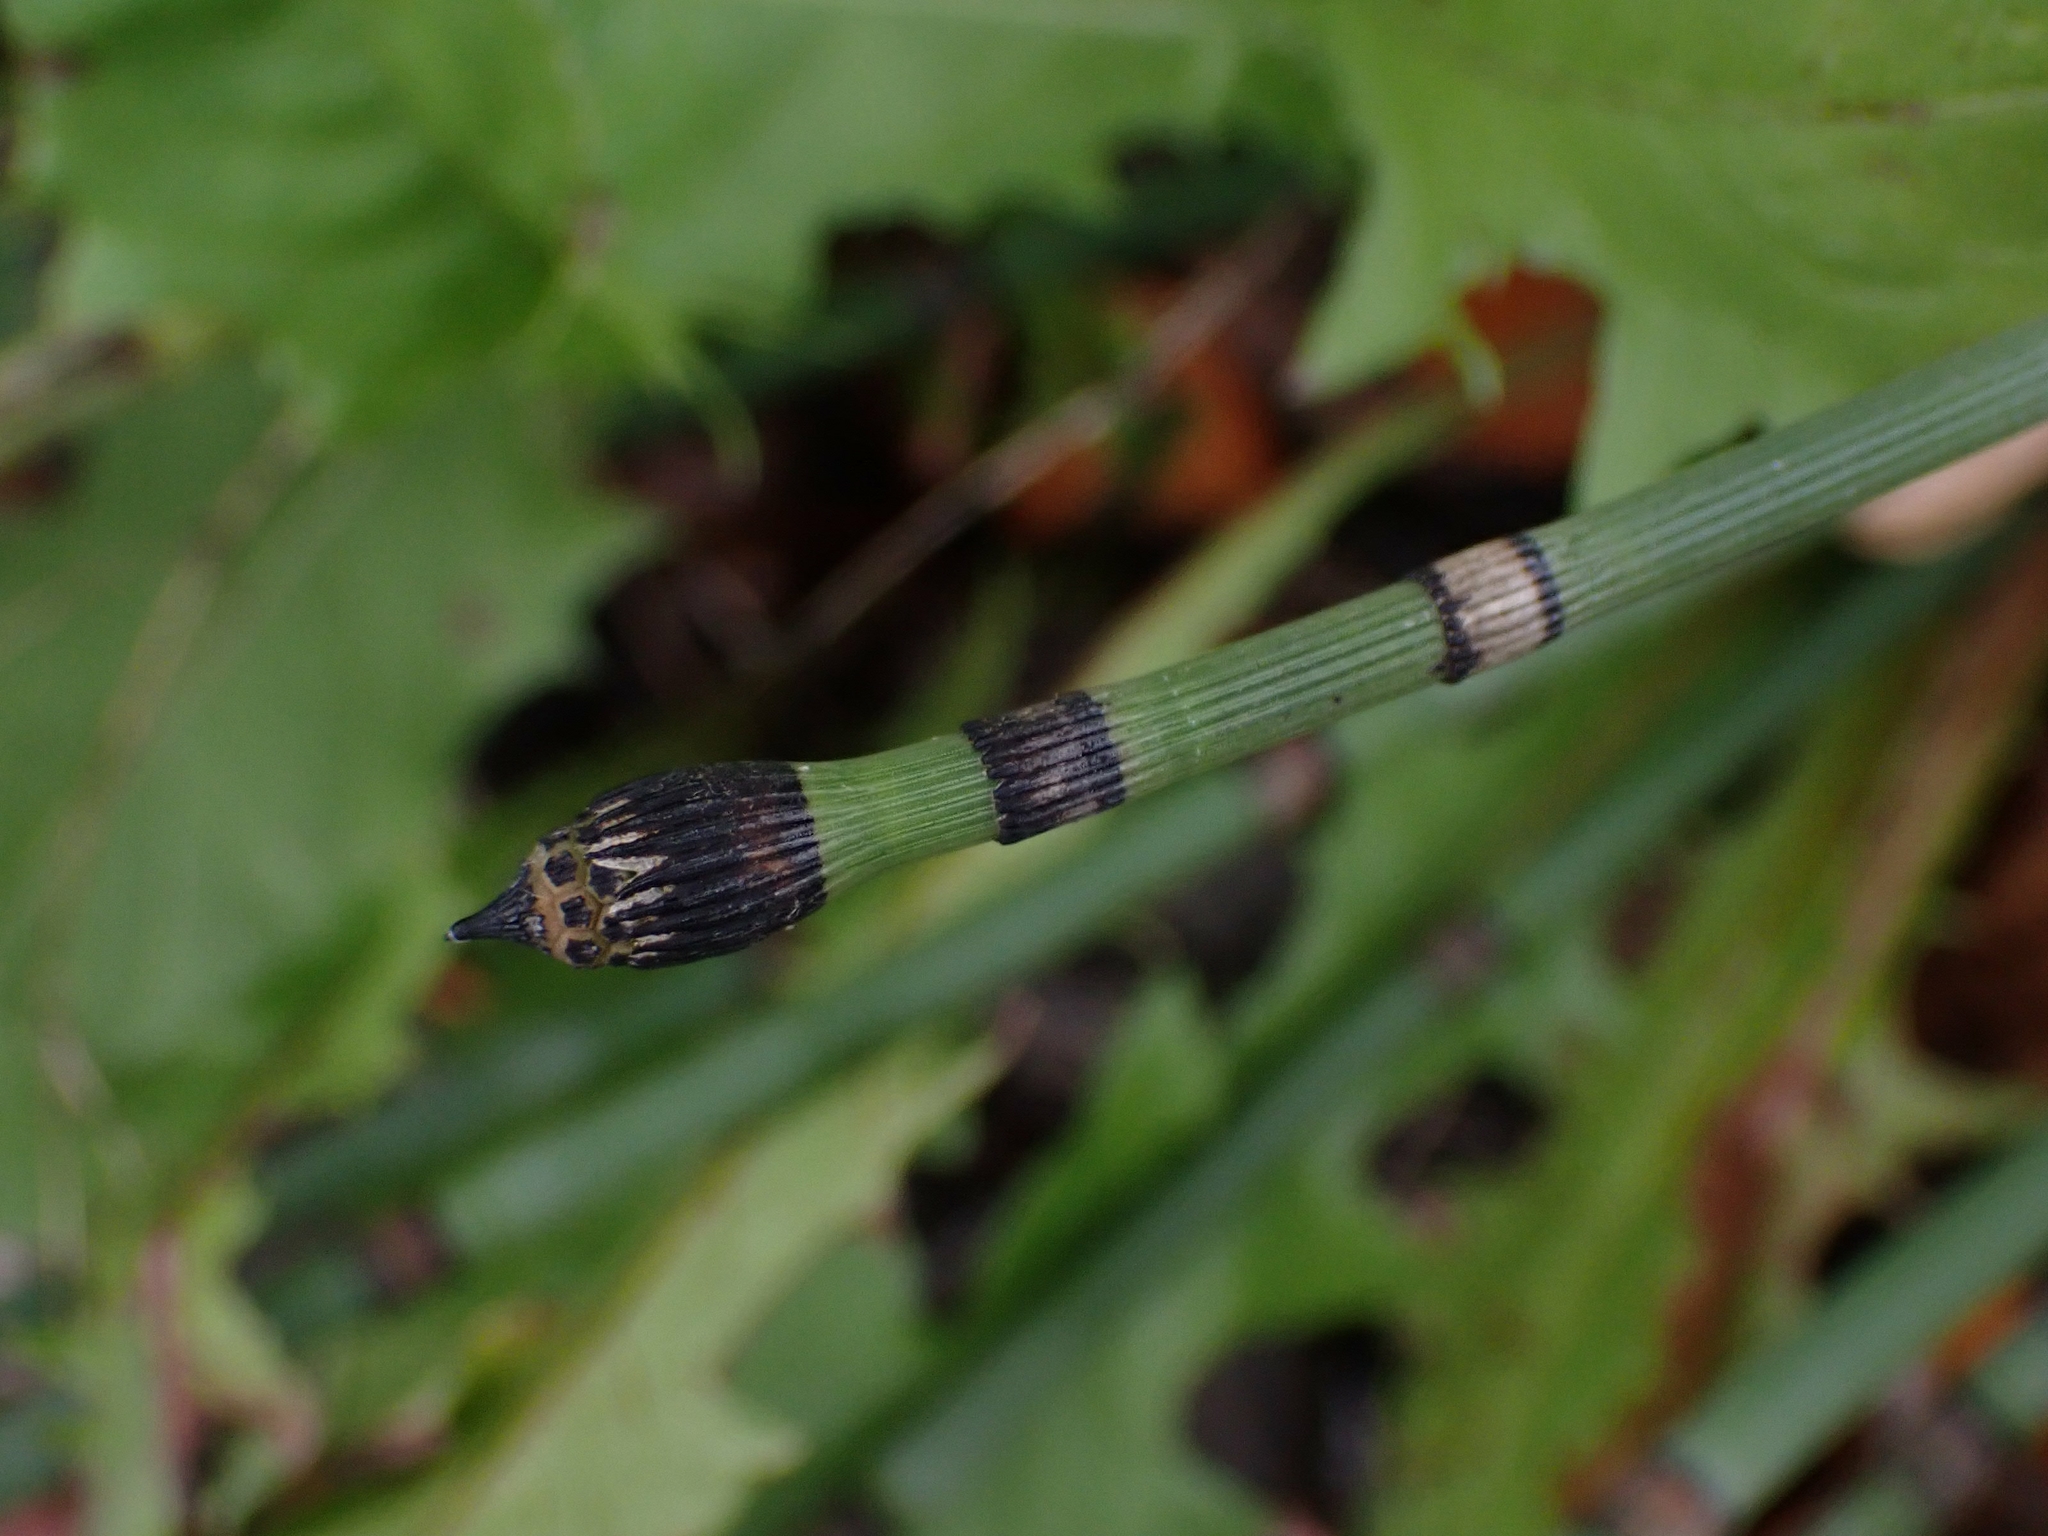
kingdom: Plantae
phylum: Tracheophyta
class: Polypodiopsida
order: Equisetales
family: Equisetaceae
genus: Equisetum
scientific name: Equisetum praealtum
